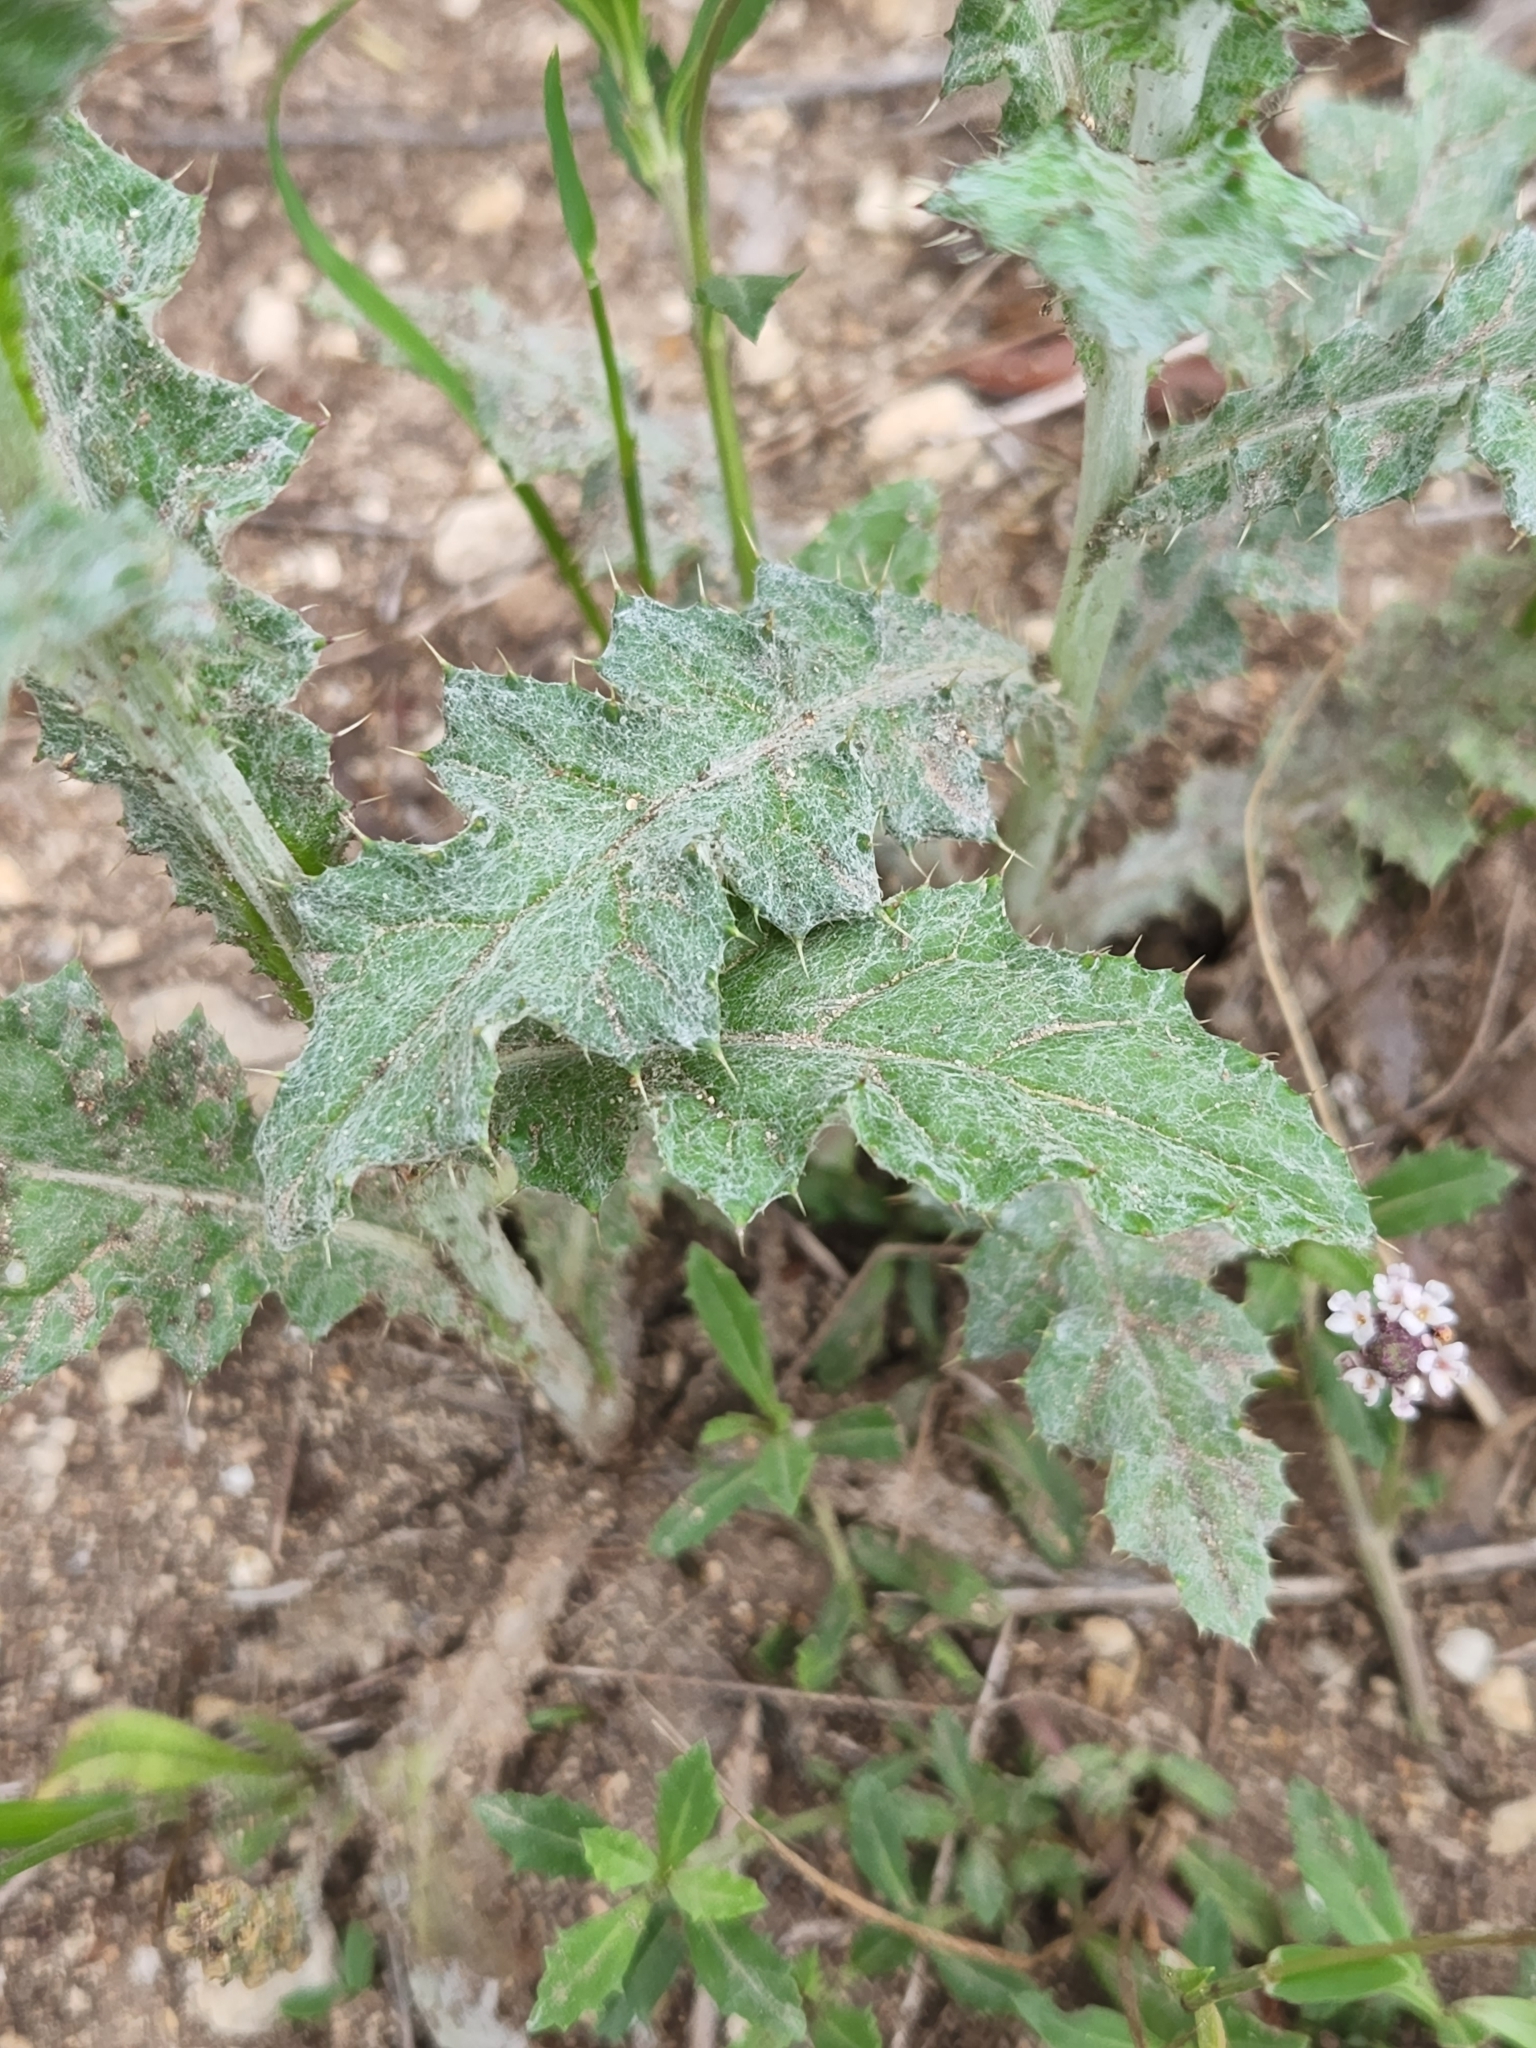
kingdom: Plantae
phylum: Tracheophyta
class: Magnoliopsida
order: Asterales
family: Asteraceae
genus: Cirsium
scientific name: Cirsium texanum
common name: Texas purple thistle
